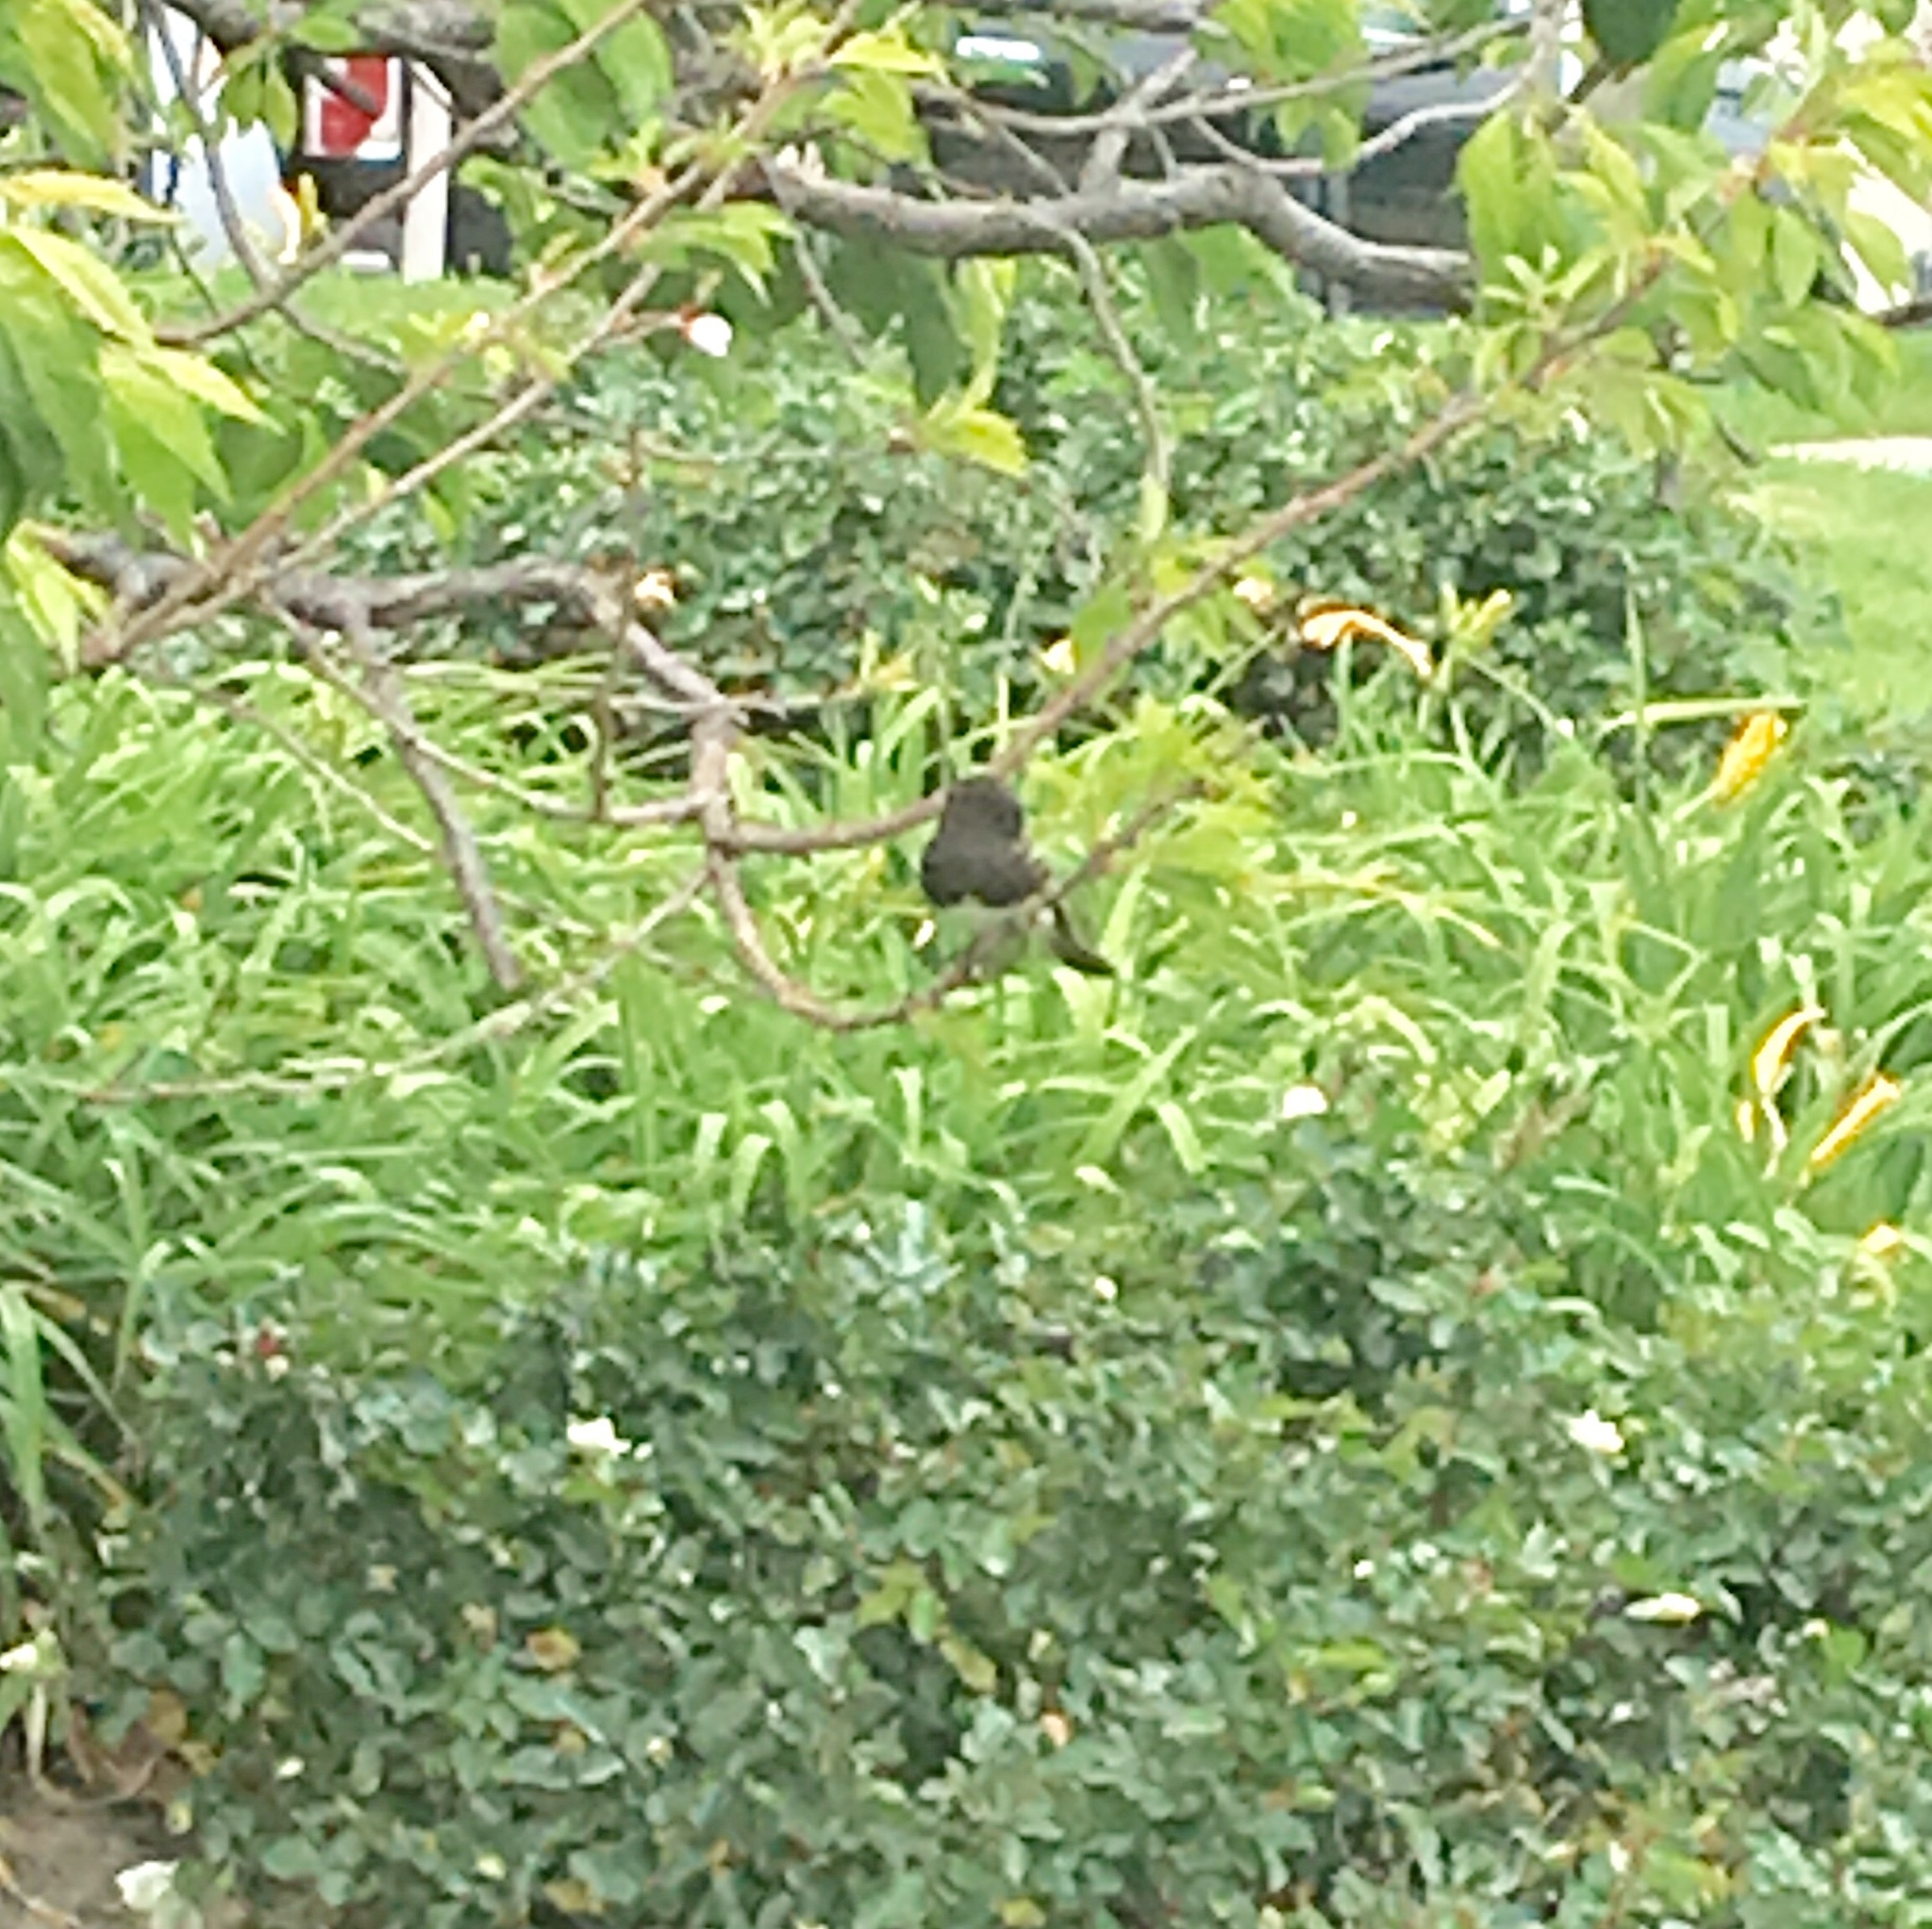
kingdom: Animalia
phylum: Chordata
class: Aves
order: Passeriformes
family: Tyrannidae
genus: Sayornis
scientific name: Sayornis nigricans
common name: Black phoebe
